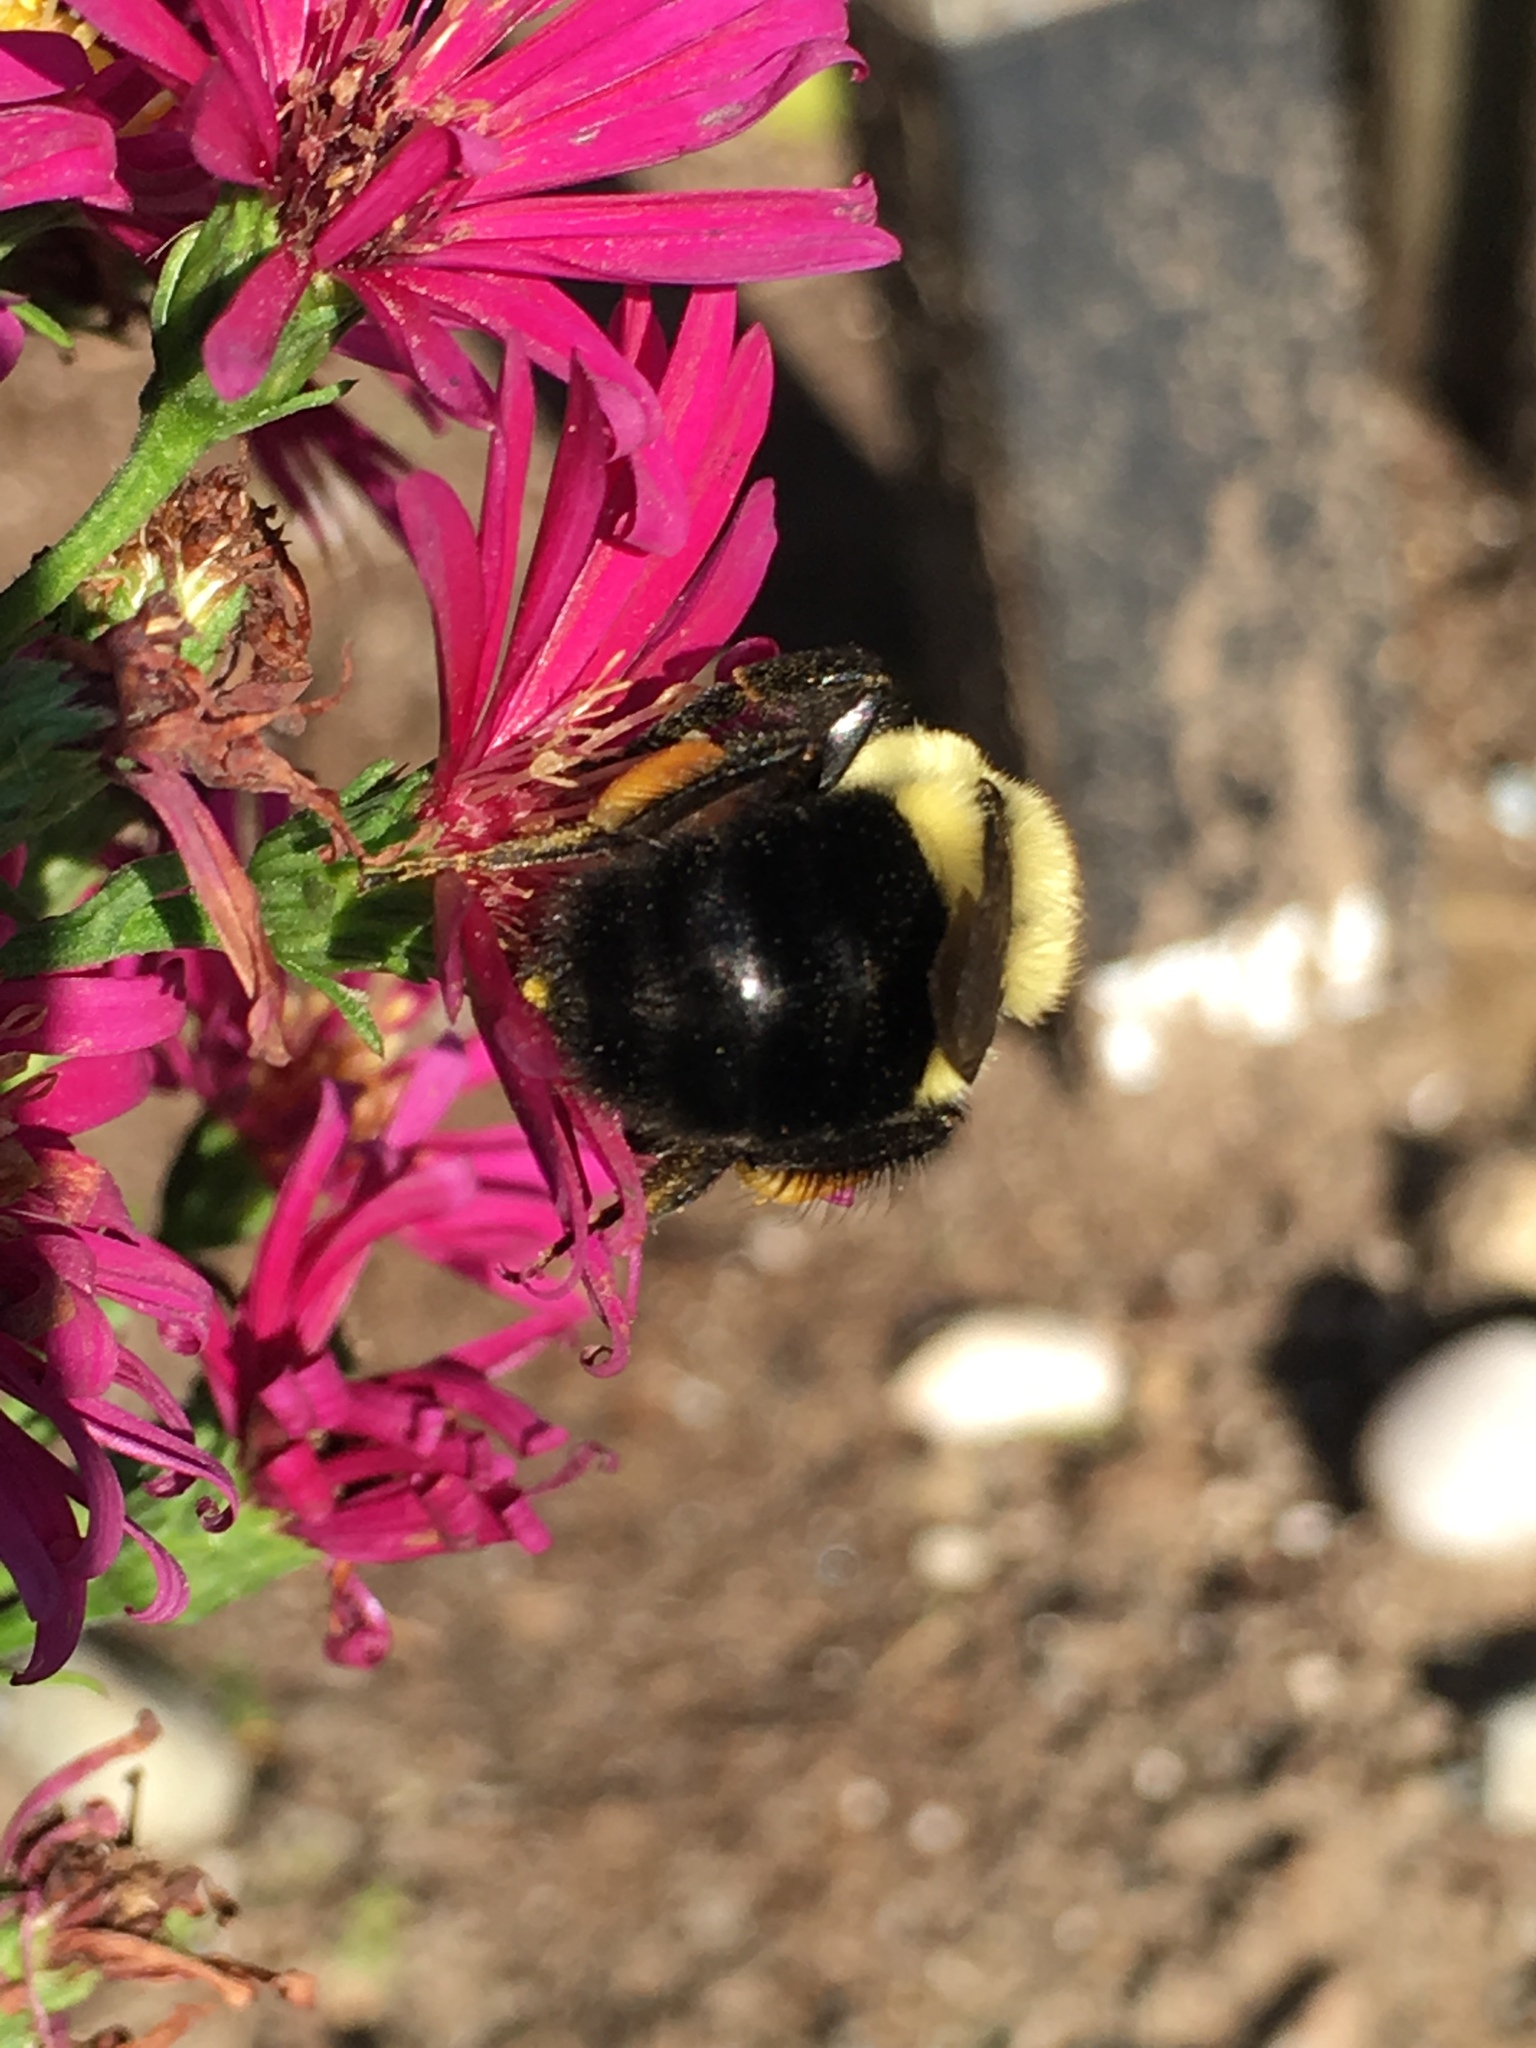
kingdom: Animalia
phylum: Arthropoda
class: Insecta
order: Hymenoptera
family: Apidae
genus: Bombus
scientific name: Bombus impatiens
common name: Common eastern bumble bee
